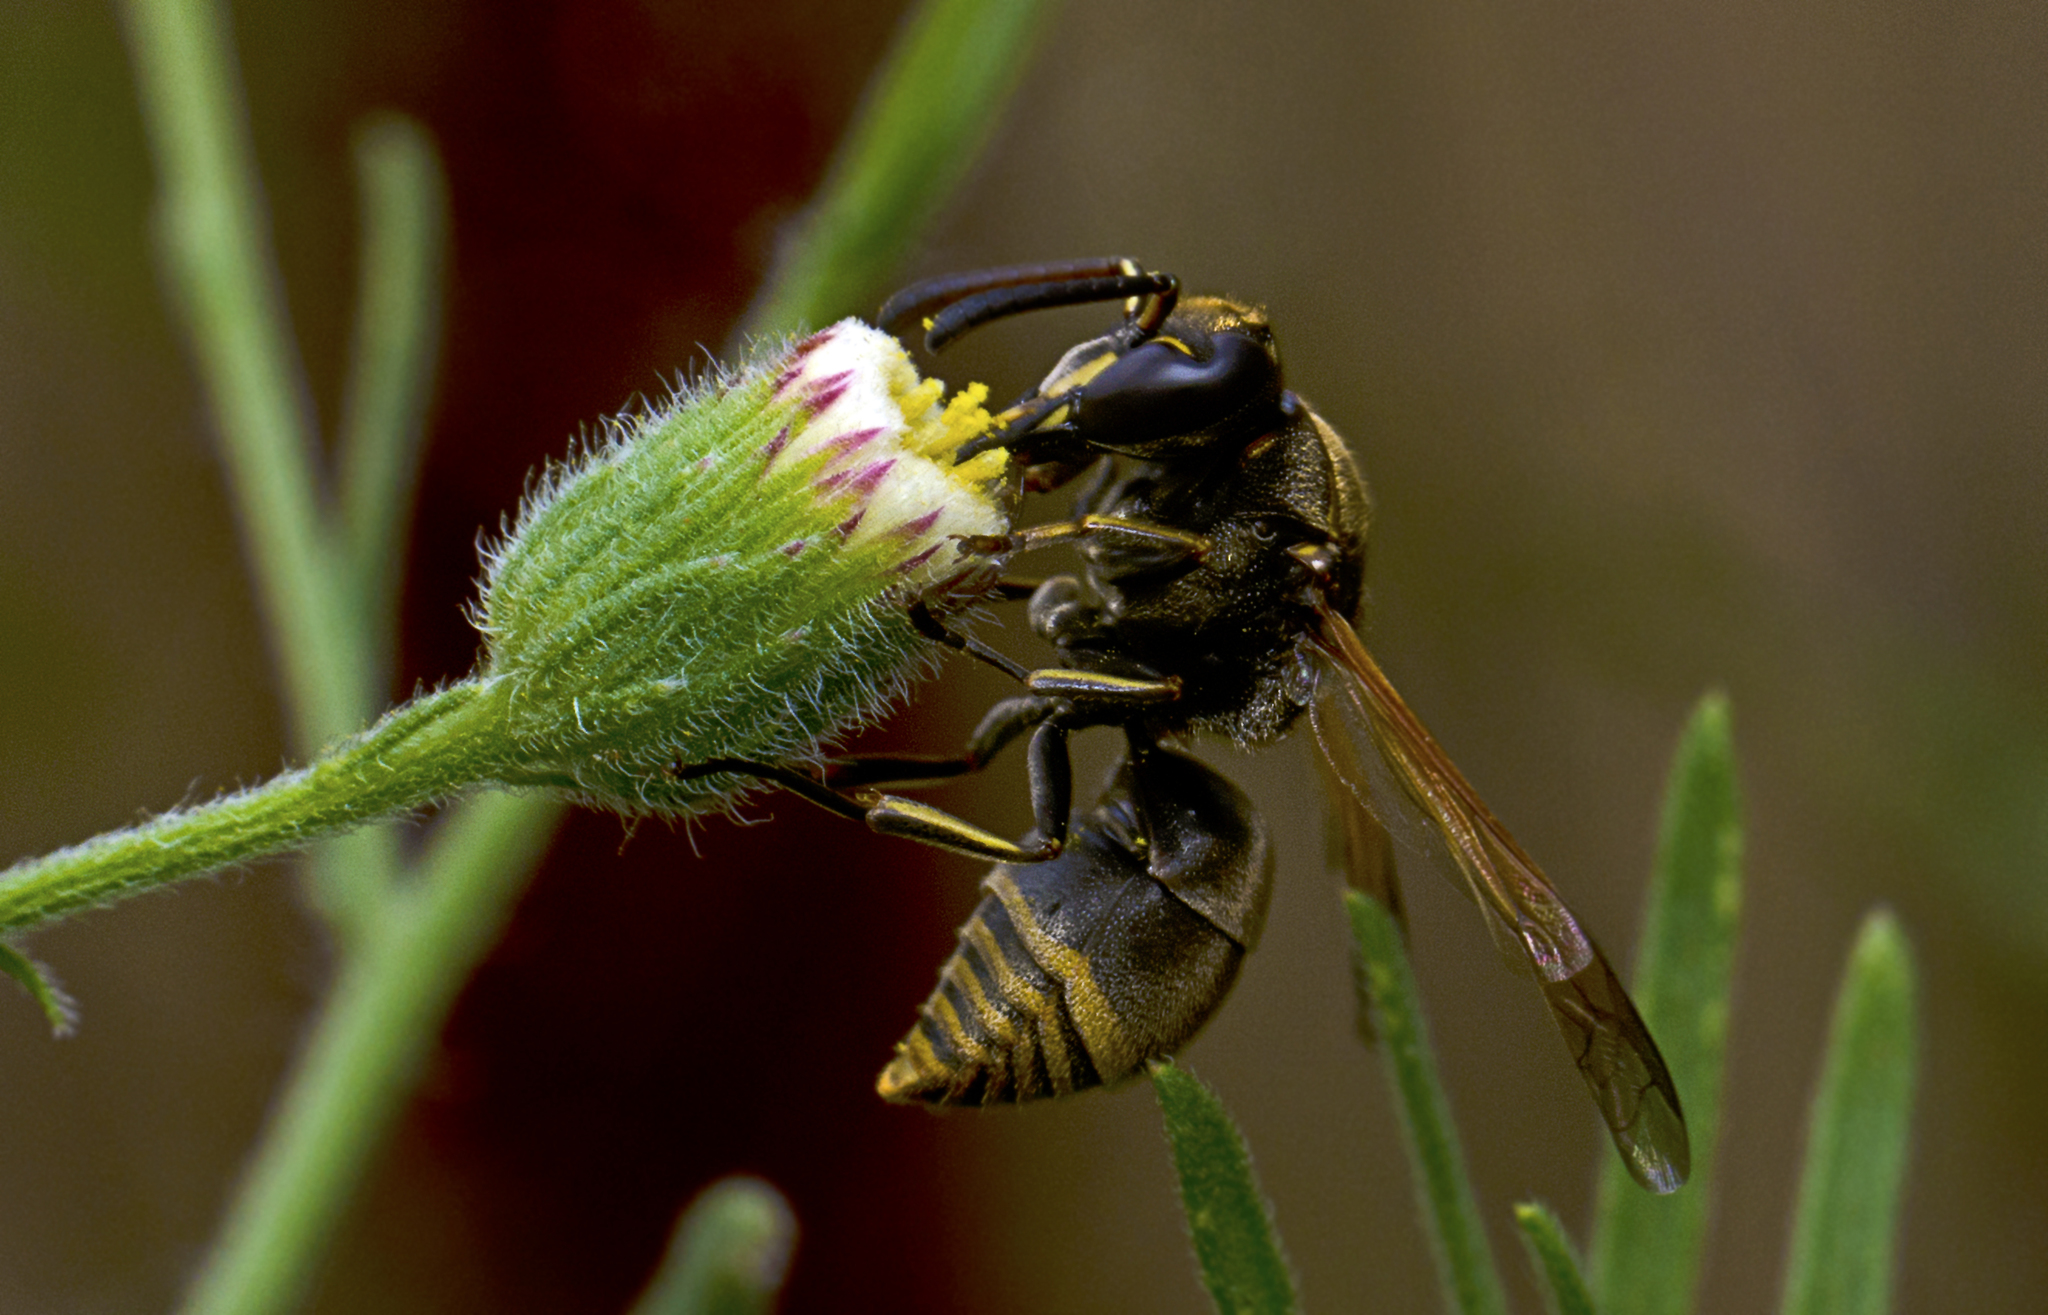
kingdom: Animalia
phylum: Arthropoda
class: Insecta
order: Hymenoptera
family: Eumenidae
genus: Pachodynerus
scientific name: Pachodynerus nasidens
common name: Key hole wasp
